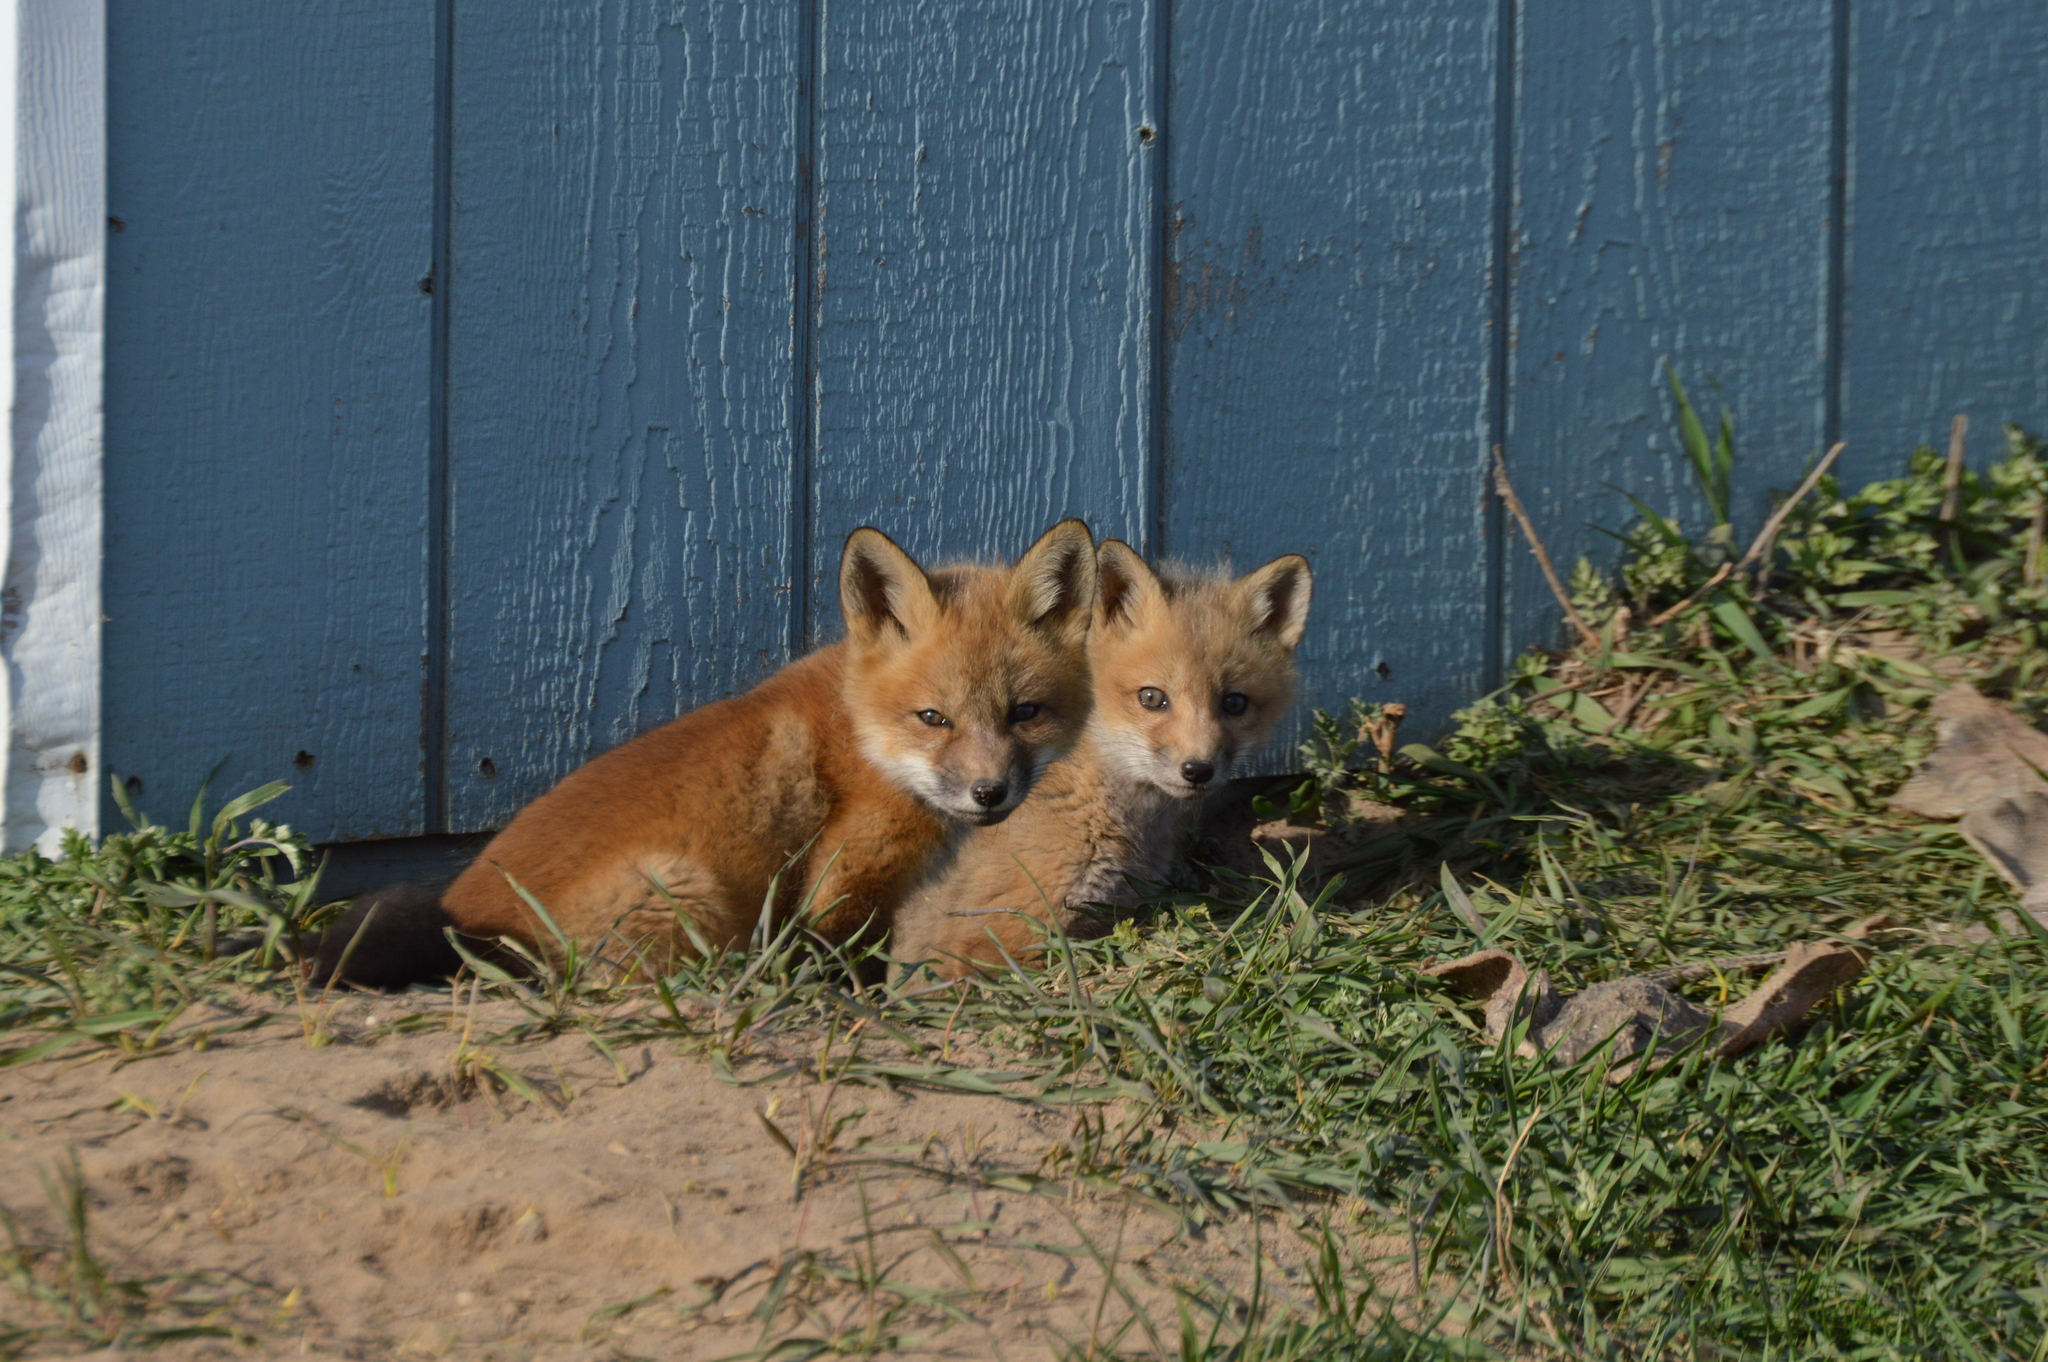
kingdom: Animalia
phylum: Chordata
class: Mammalia
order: Carnivora
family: Canidae
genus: Vulpes
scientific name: Vulpes vulpes
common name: Red fox
